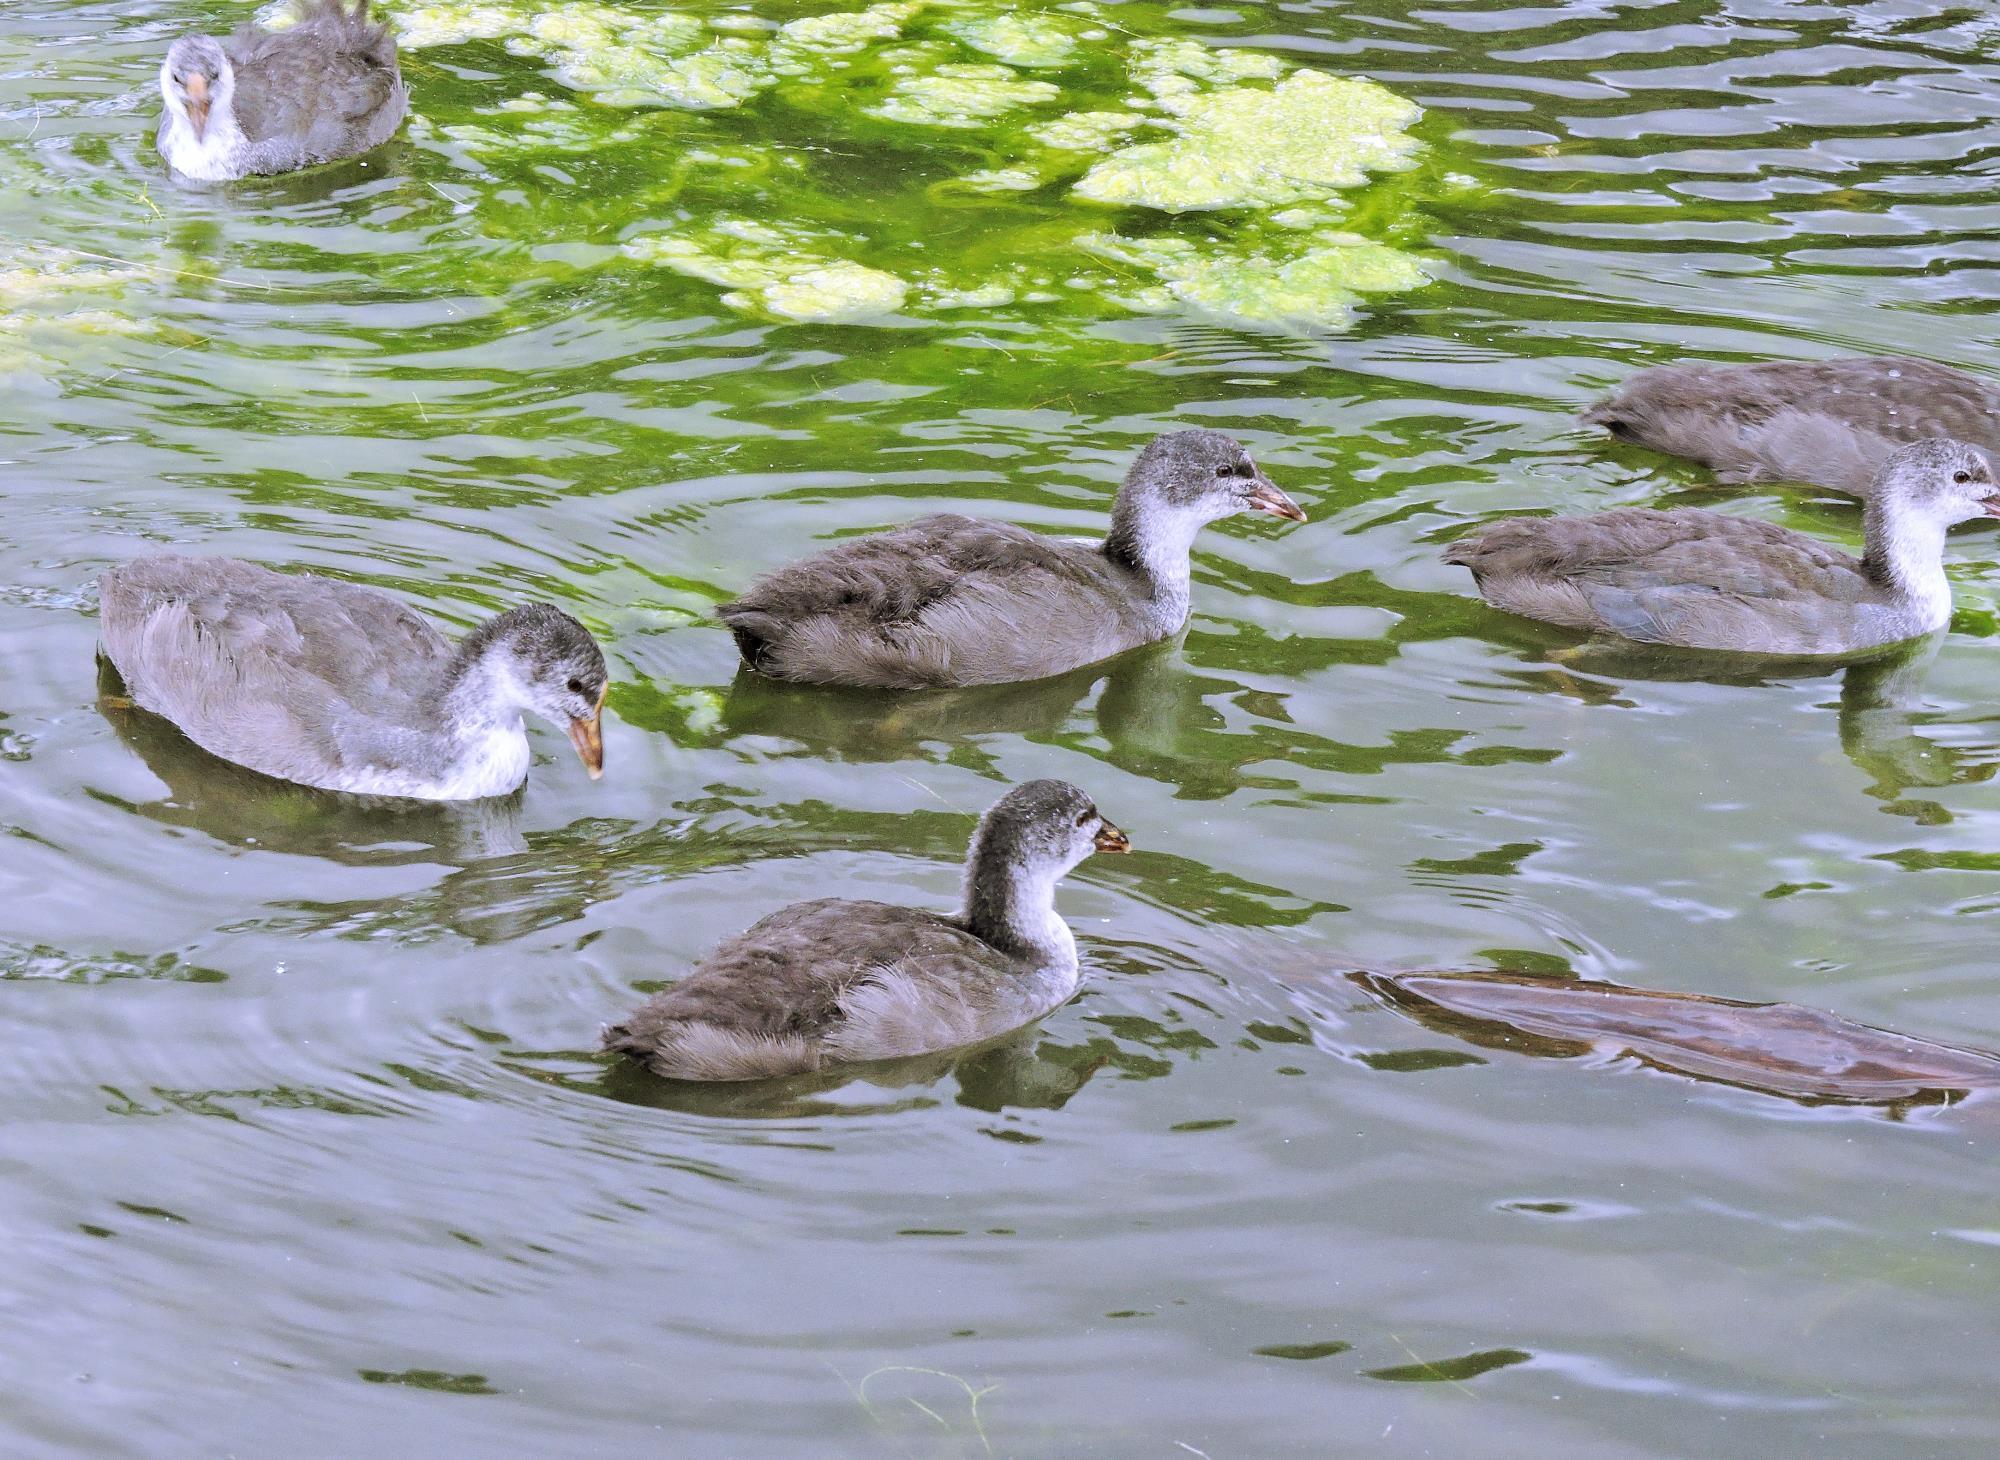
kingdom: Animalia
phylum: Chordata
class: Aves
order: Gruiformes
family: Rallidae
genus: Fulica
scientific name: Fulica atra
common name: Eurasian coot
